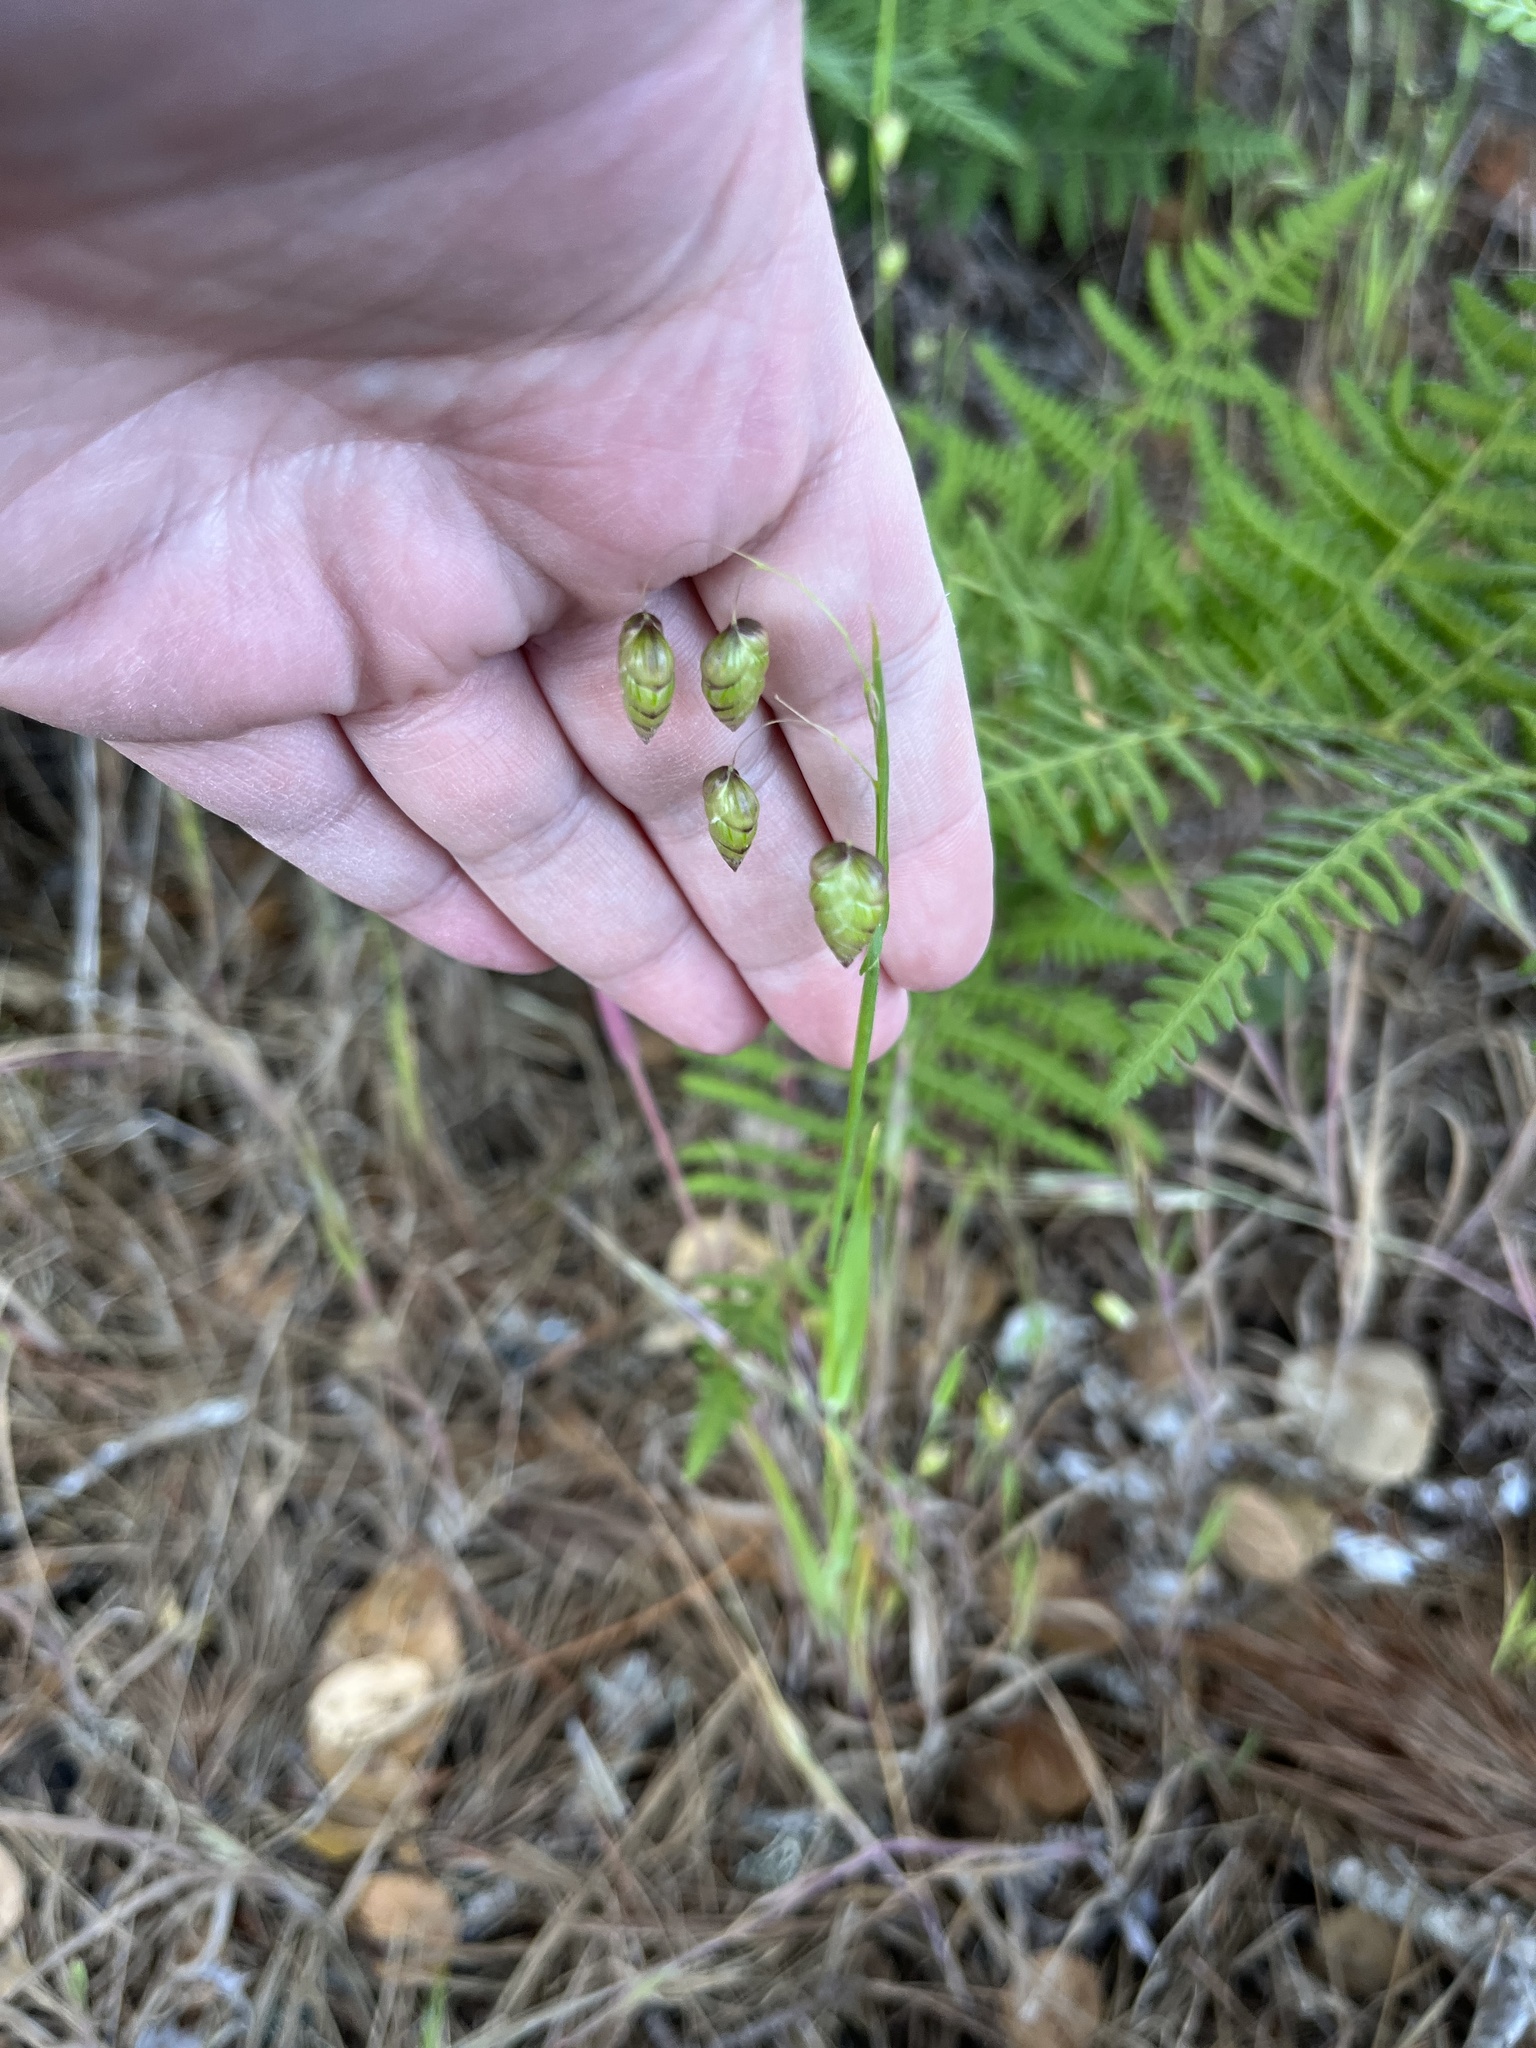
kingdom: Plantae
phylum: Tracheophyta
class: Liliopsida
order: Poales
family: Poaceae
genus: Briza
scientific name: Briza maxima
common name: Big quakinggrass
